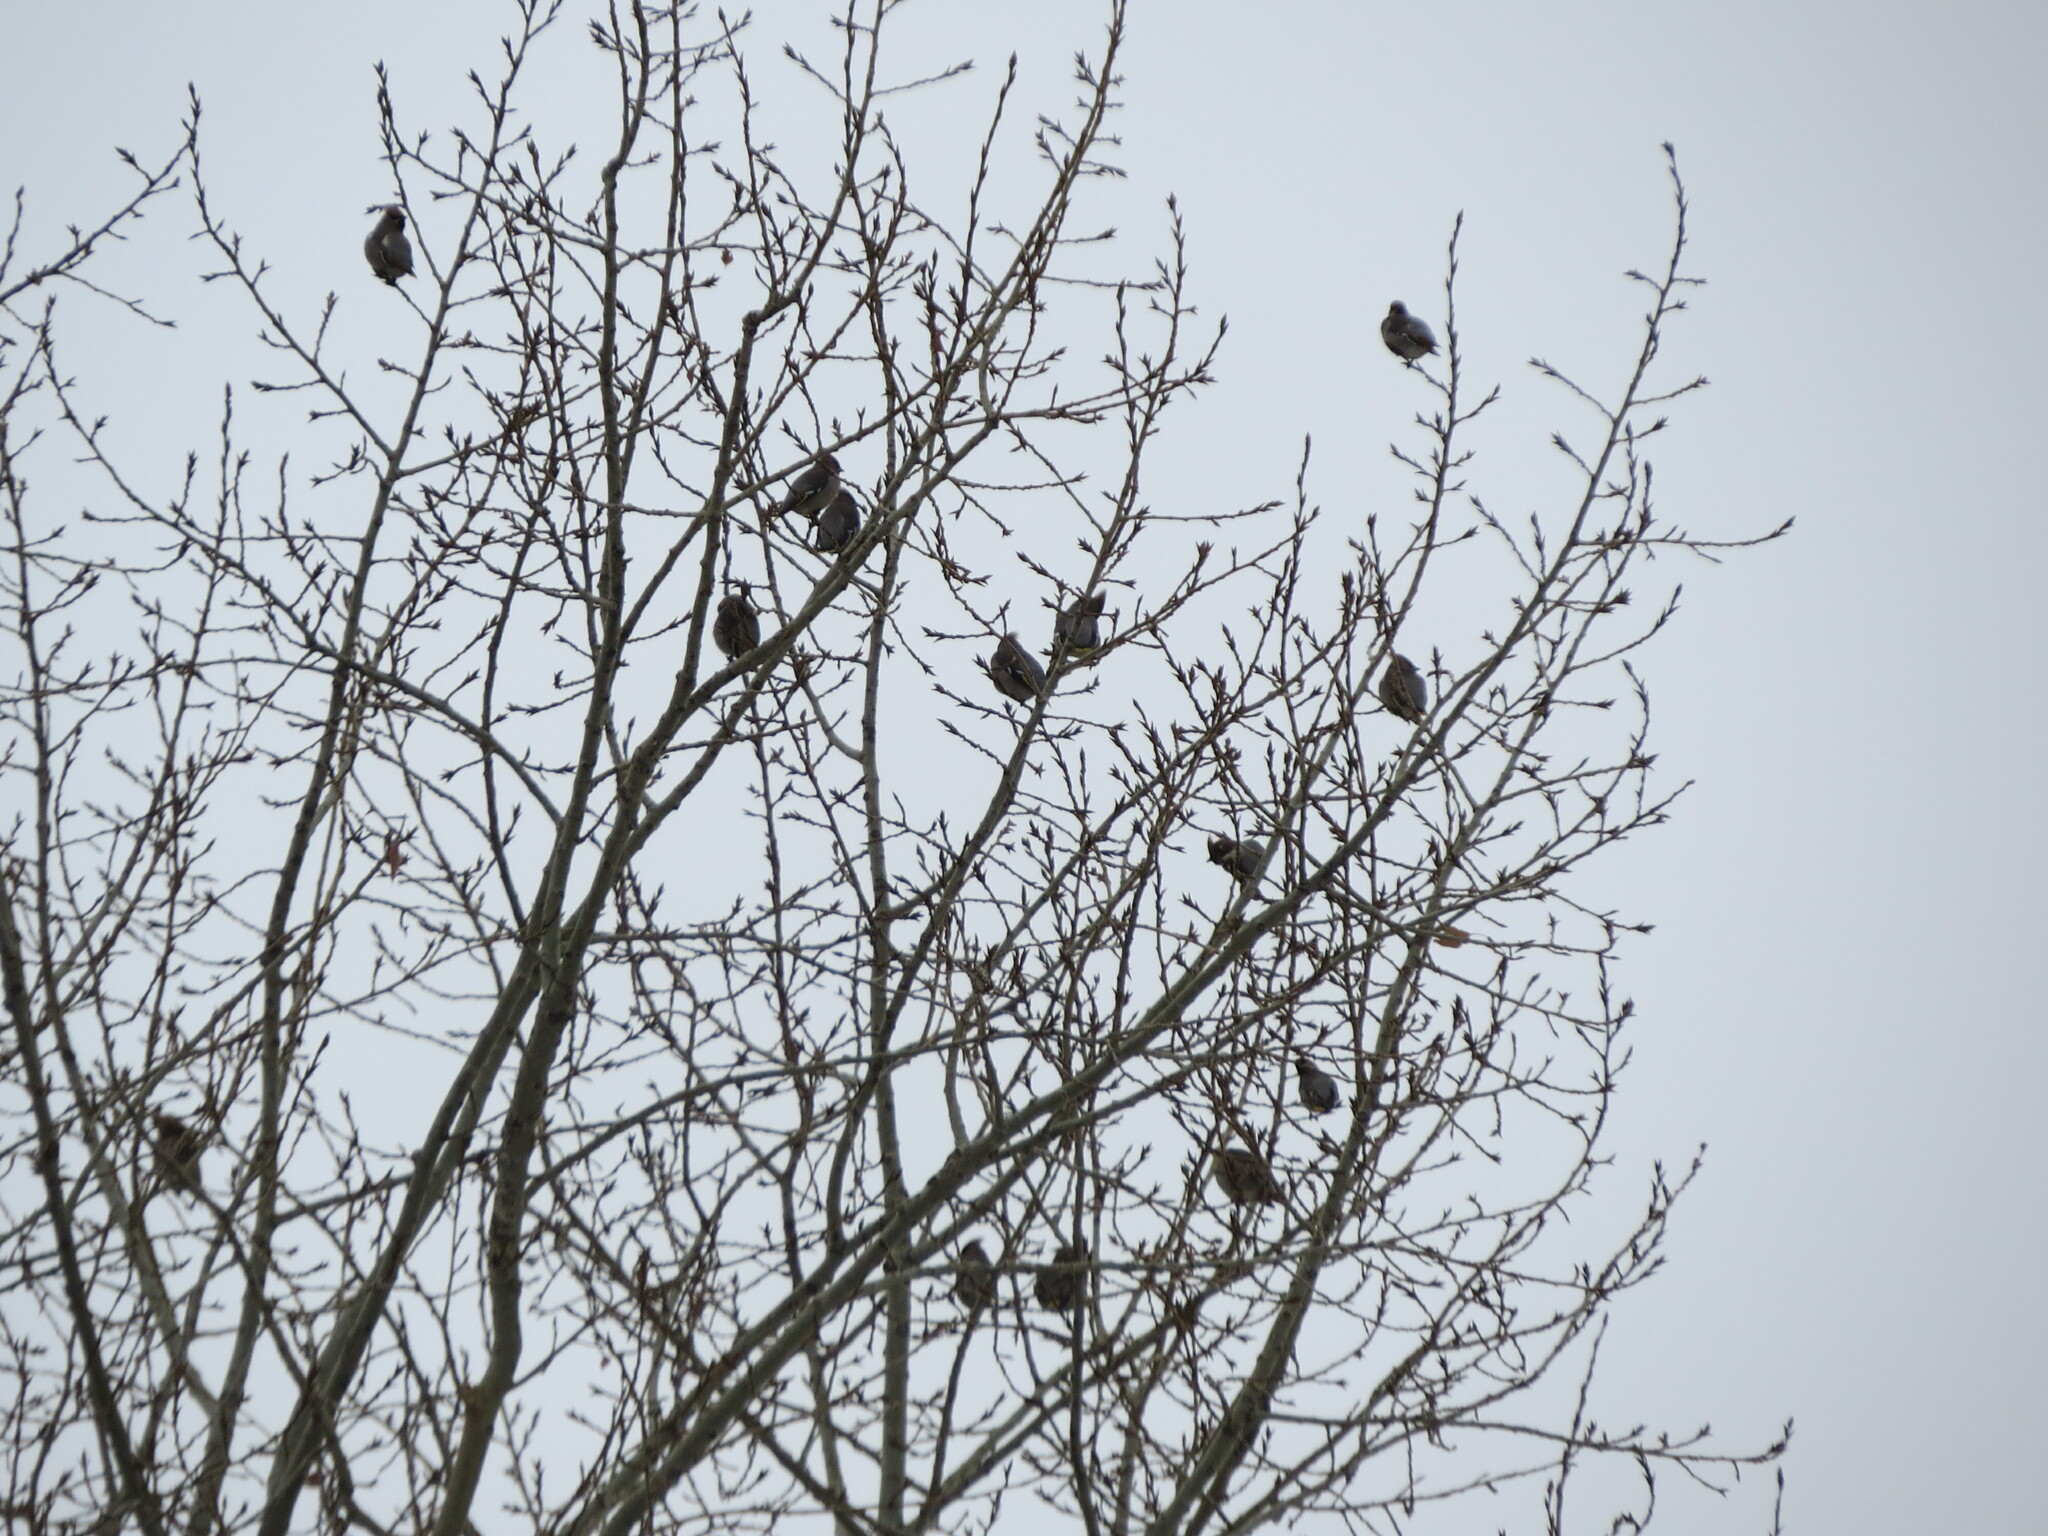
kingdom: Animalia
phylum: Chordata
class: Aves
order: Passeriformes
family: Bombycillidae
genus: Bombycilla
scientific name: Bombycilla garrulus
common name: Bohemian waxwing
